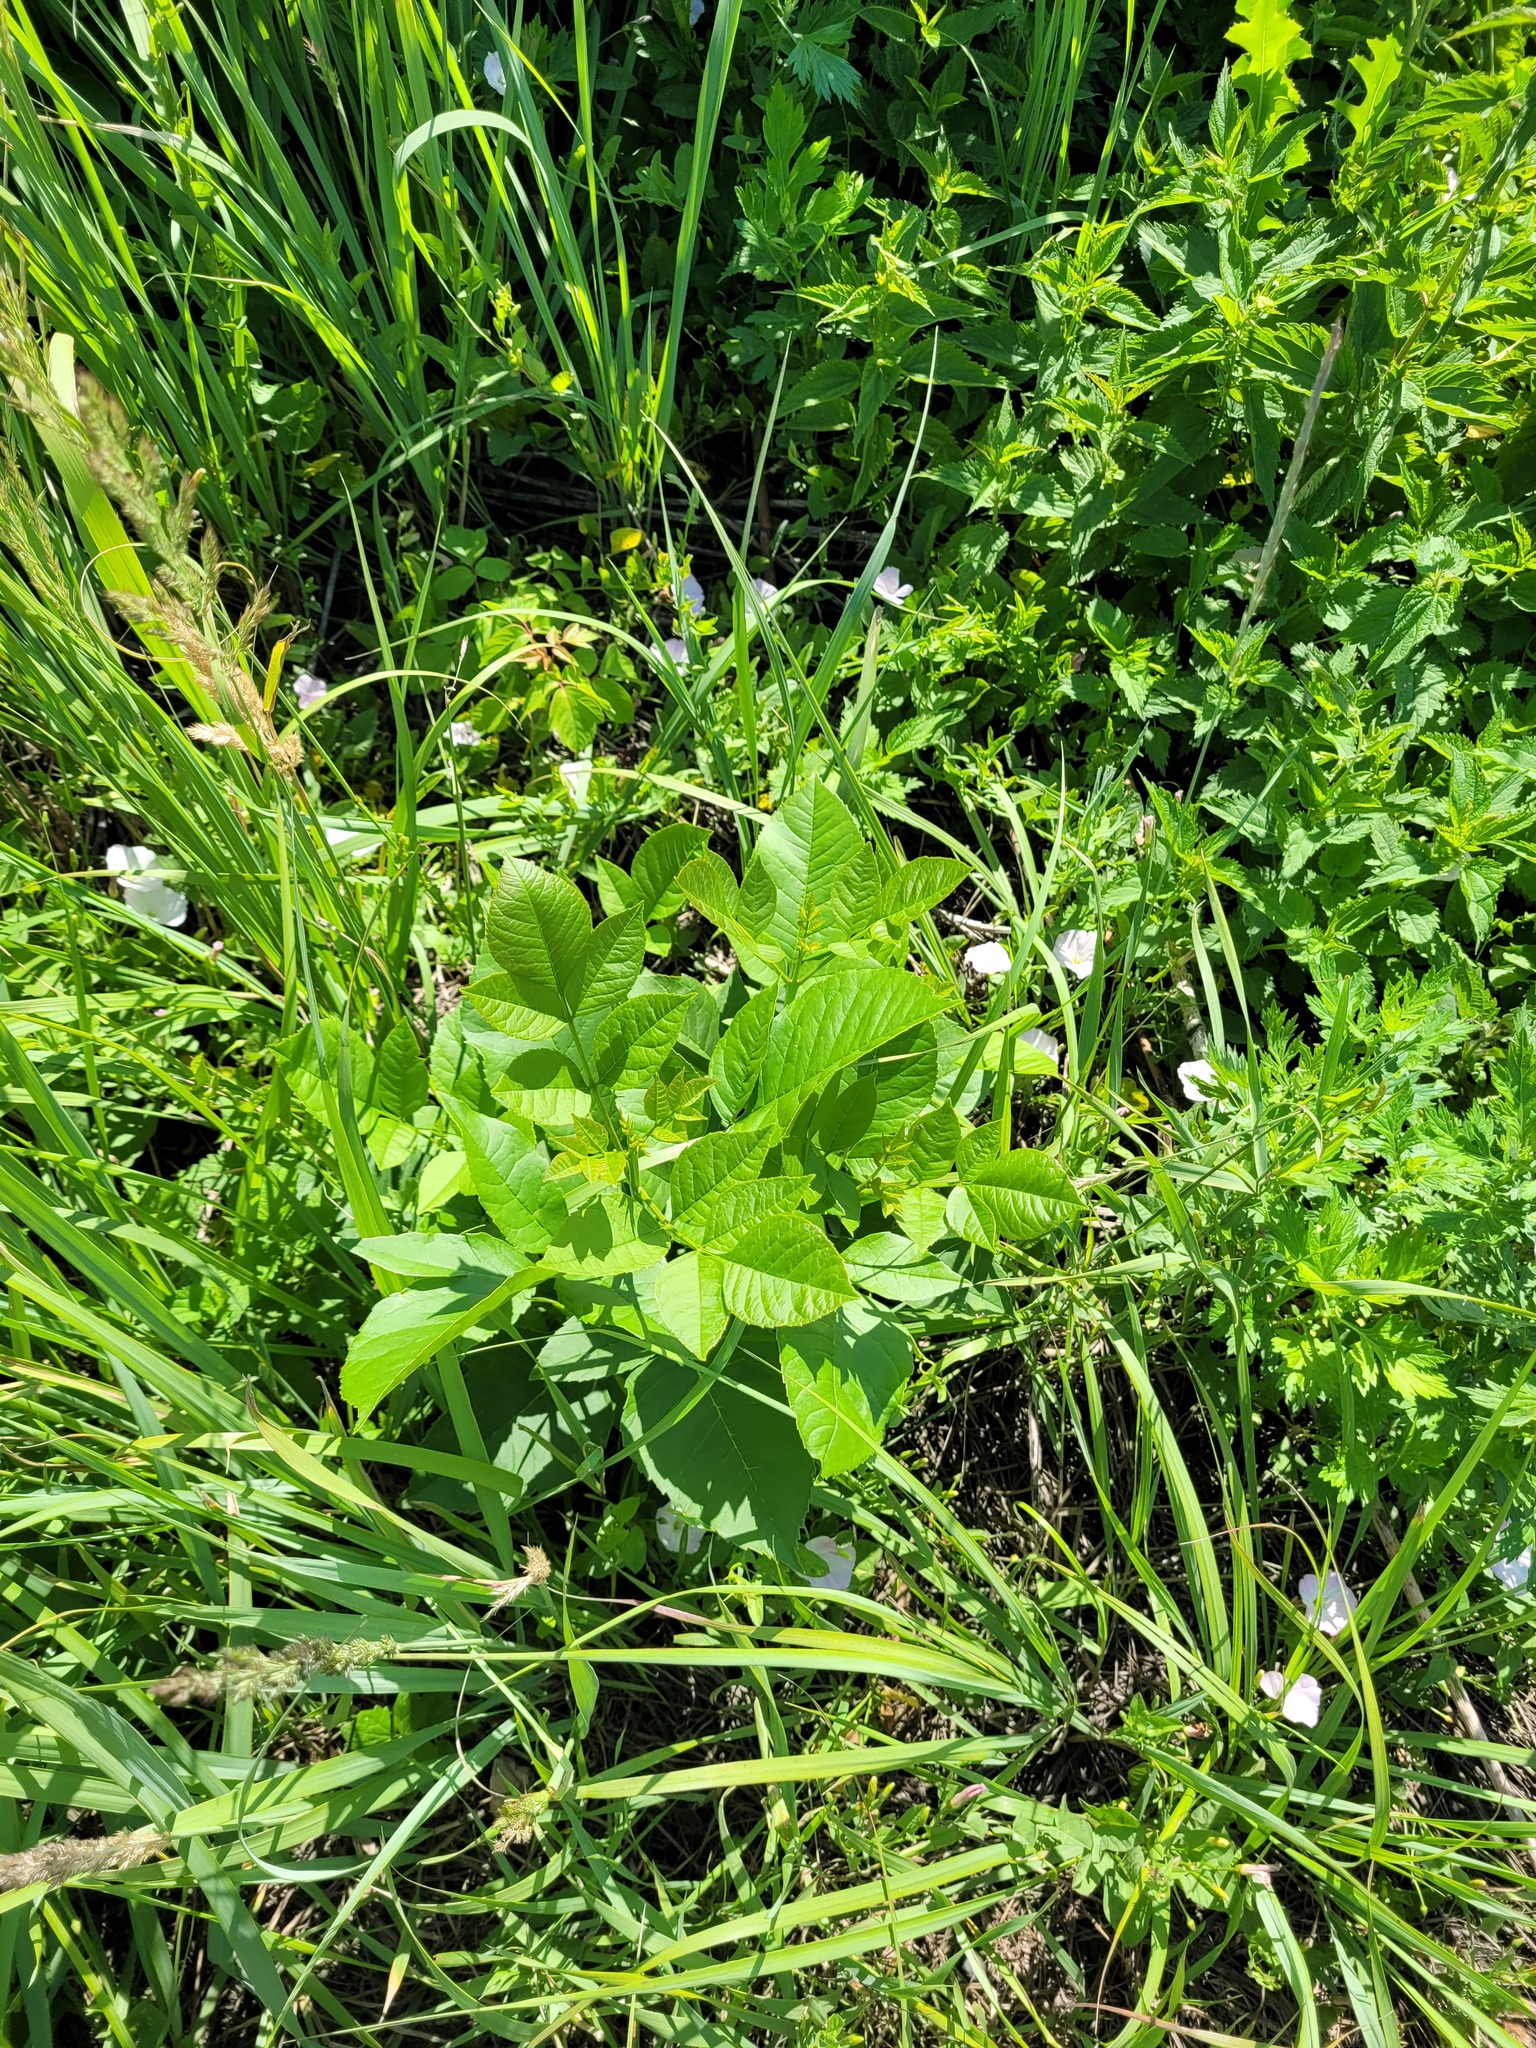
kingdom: Plantae
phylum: Tracheophyta
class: Magnoliopsida
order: Lamiales
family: Oleaceae
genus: Fraxinus
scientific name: Fraxinus pennsylvanica
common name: Green ash
